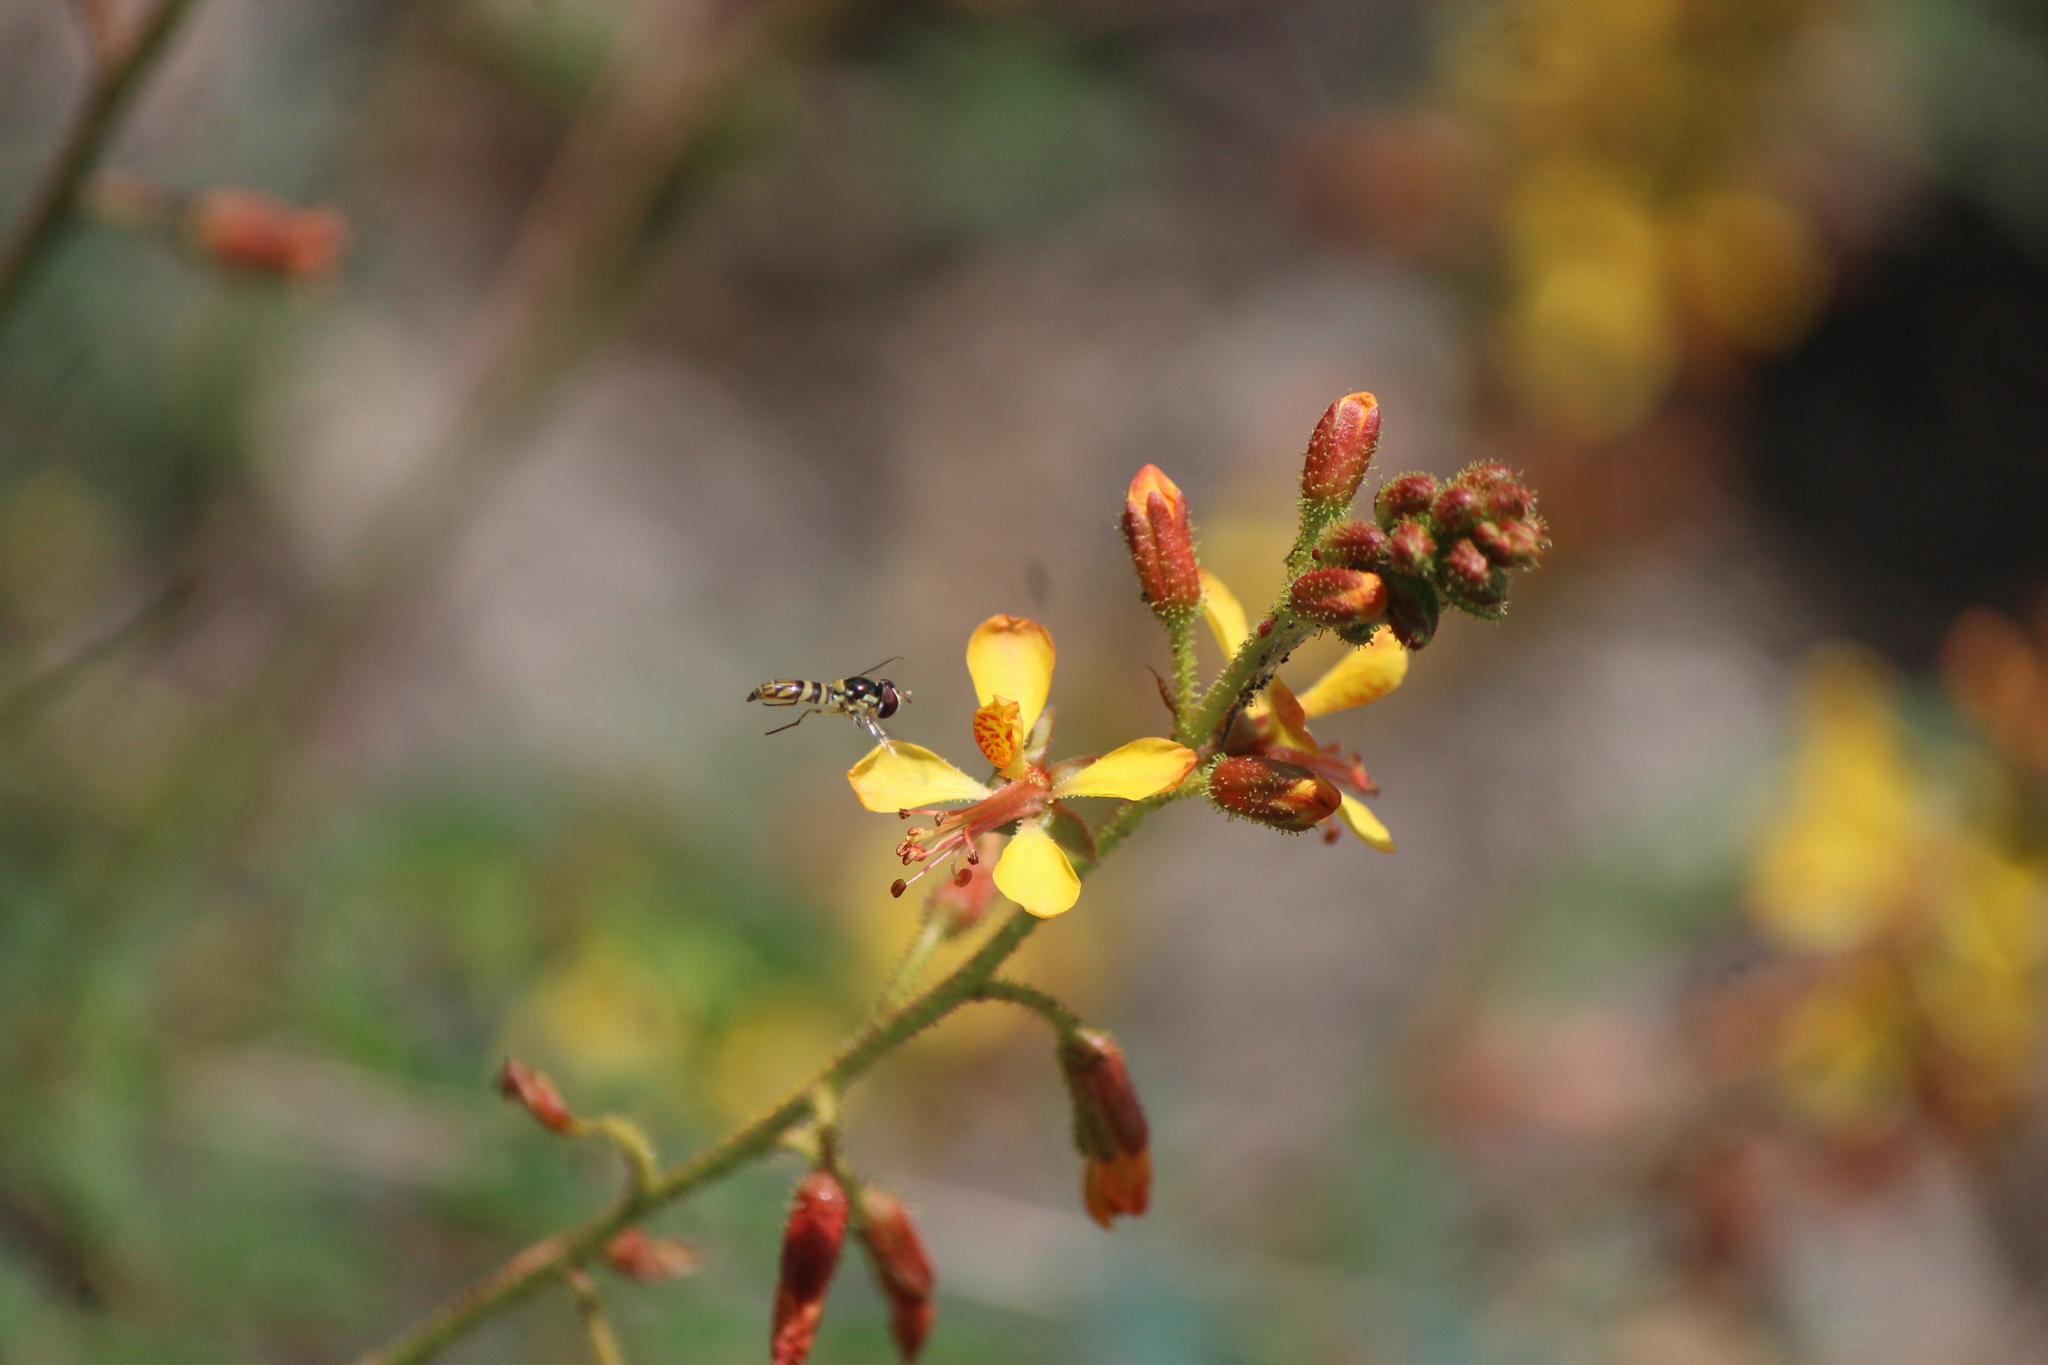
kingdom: Plantae
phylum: Tracheophyta
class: Magnoliopsida
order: Fabales
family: Fabaceae
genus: Hoffmannseggia
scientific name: Hoffmannseggia glauca
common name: Pignut
